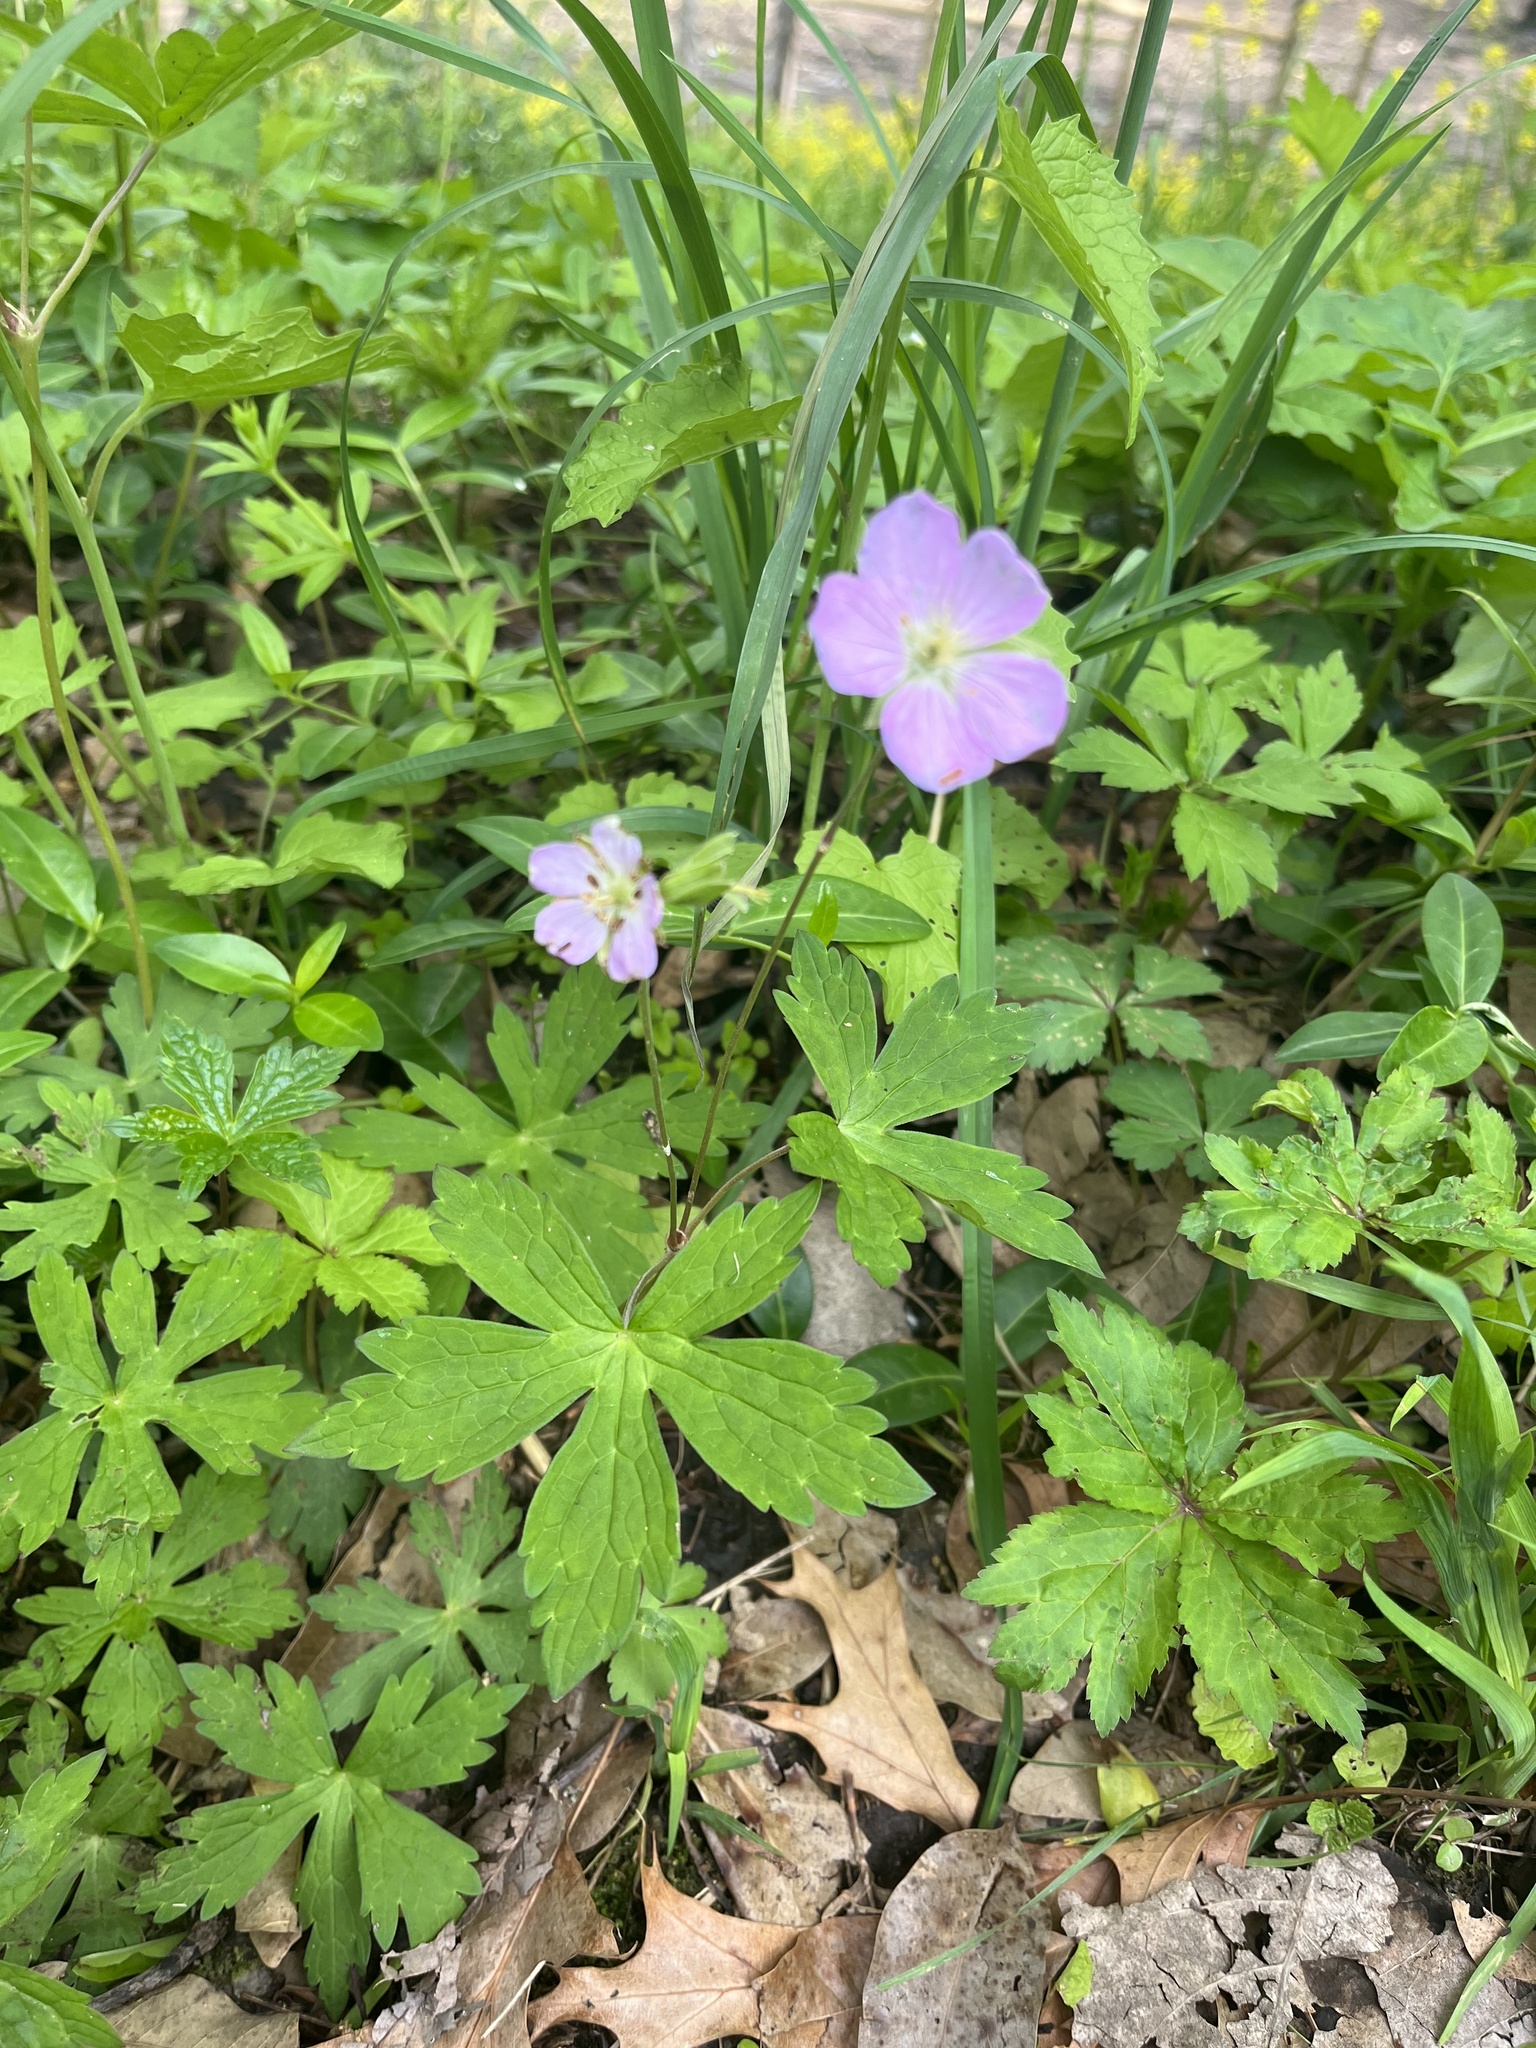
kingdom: Plantae
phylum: Tracheophyta
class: Magnoliopsida
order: Geraniales
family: Geraniaceae
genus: Geranium
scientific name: Geranium maculatum
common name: Spotted geranium
